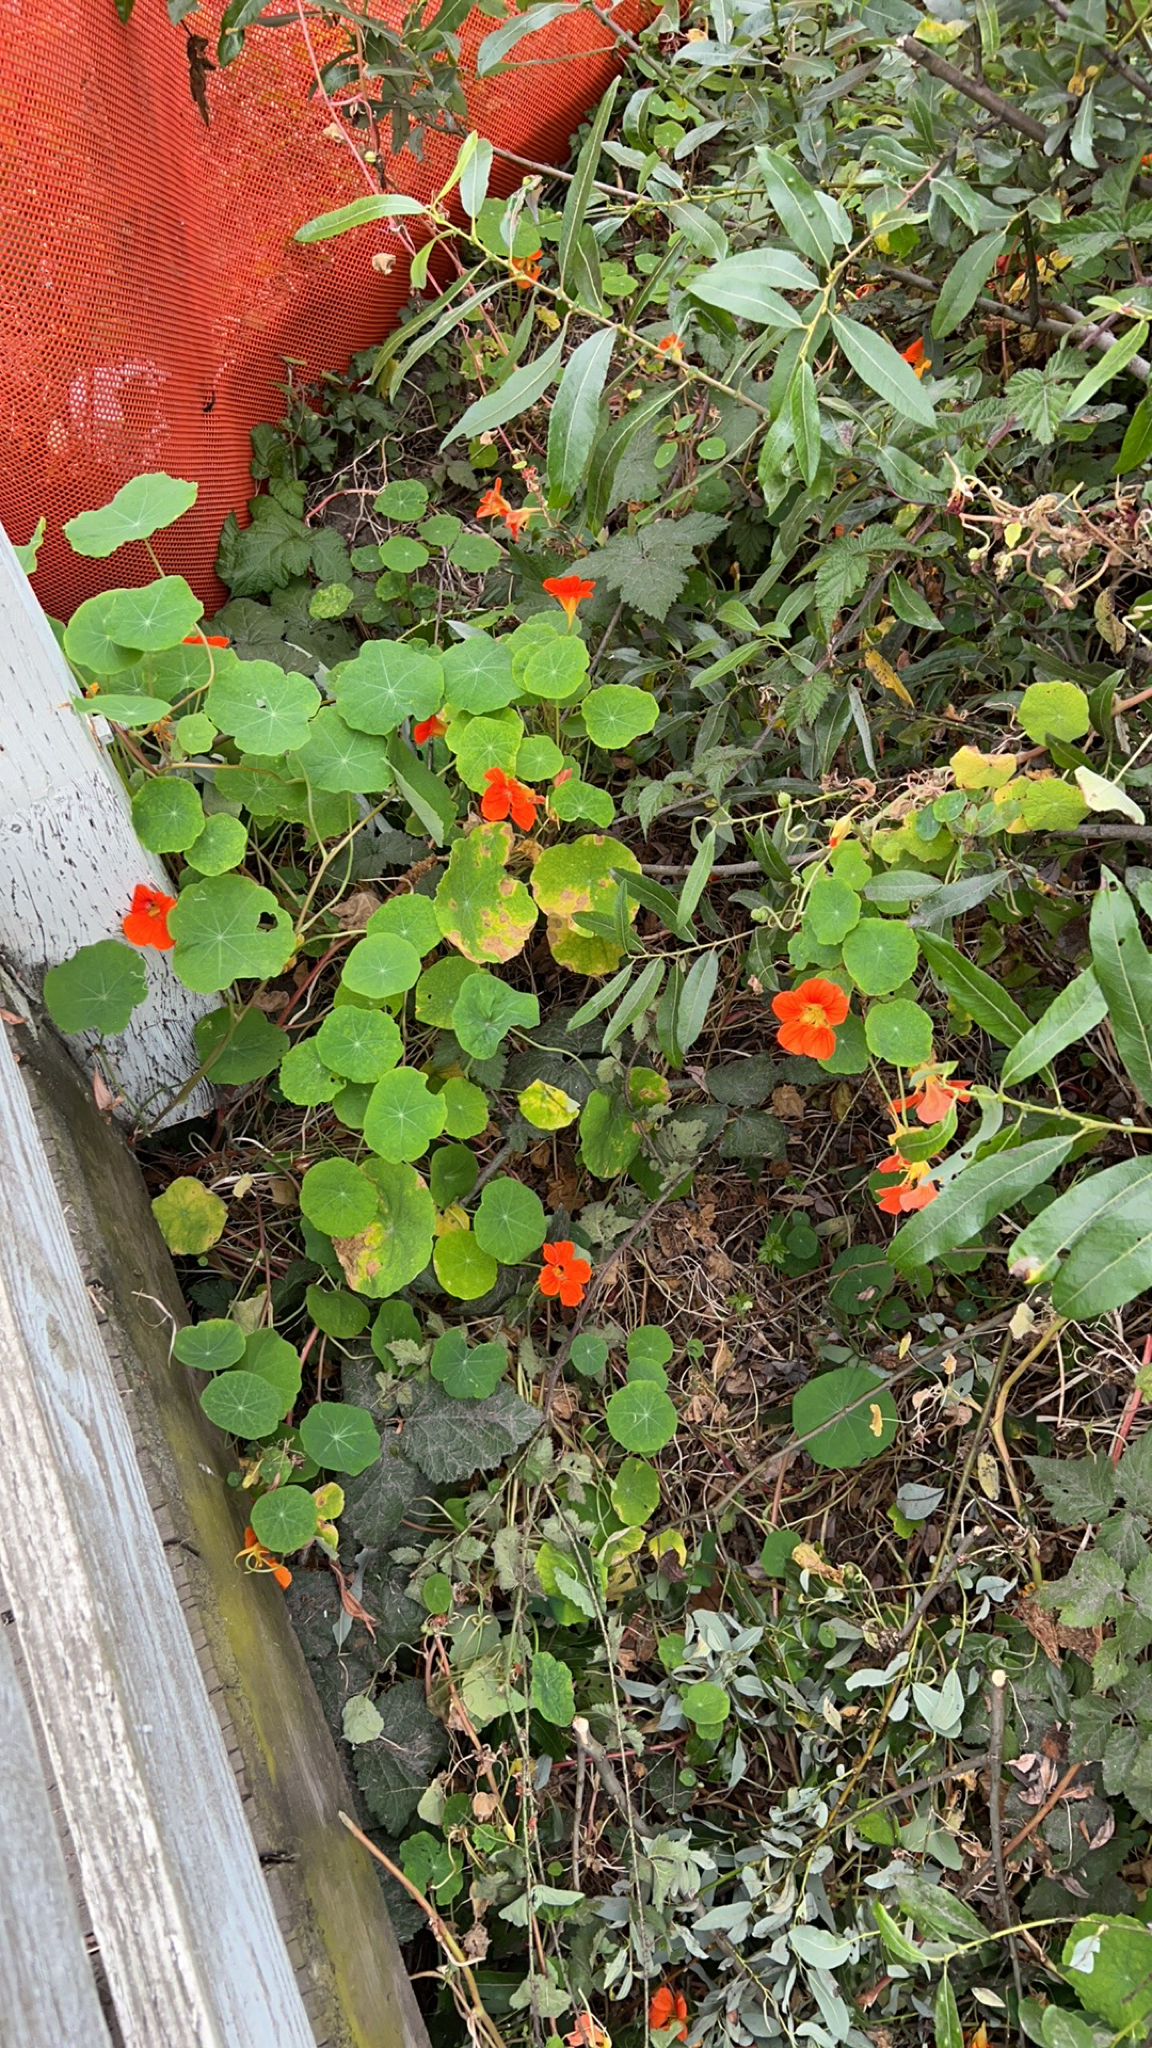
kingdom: Plantae
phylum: Tracheophyta
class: Magnoliopsida
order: Brassicales
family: Tropaeolaceae
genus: Tropaeolum
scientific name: Tropaeolum majus
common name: Nasturtium
